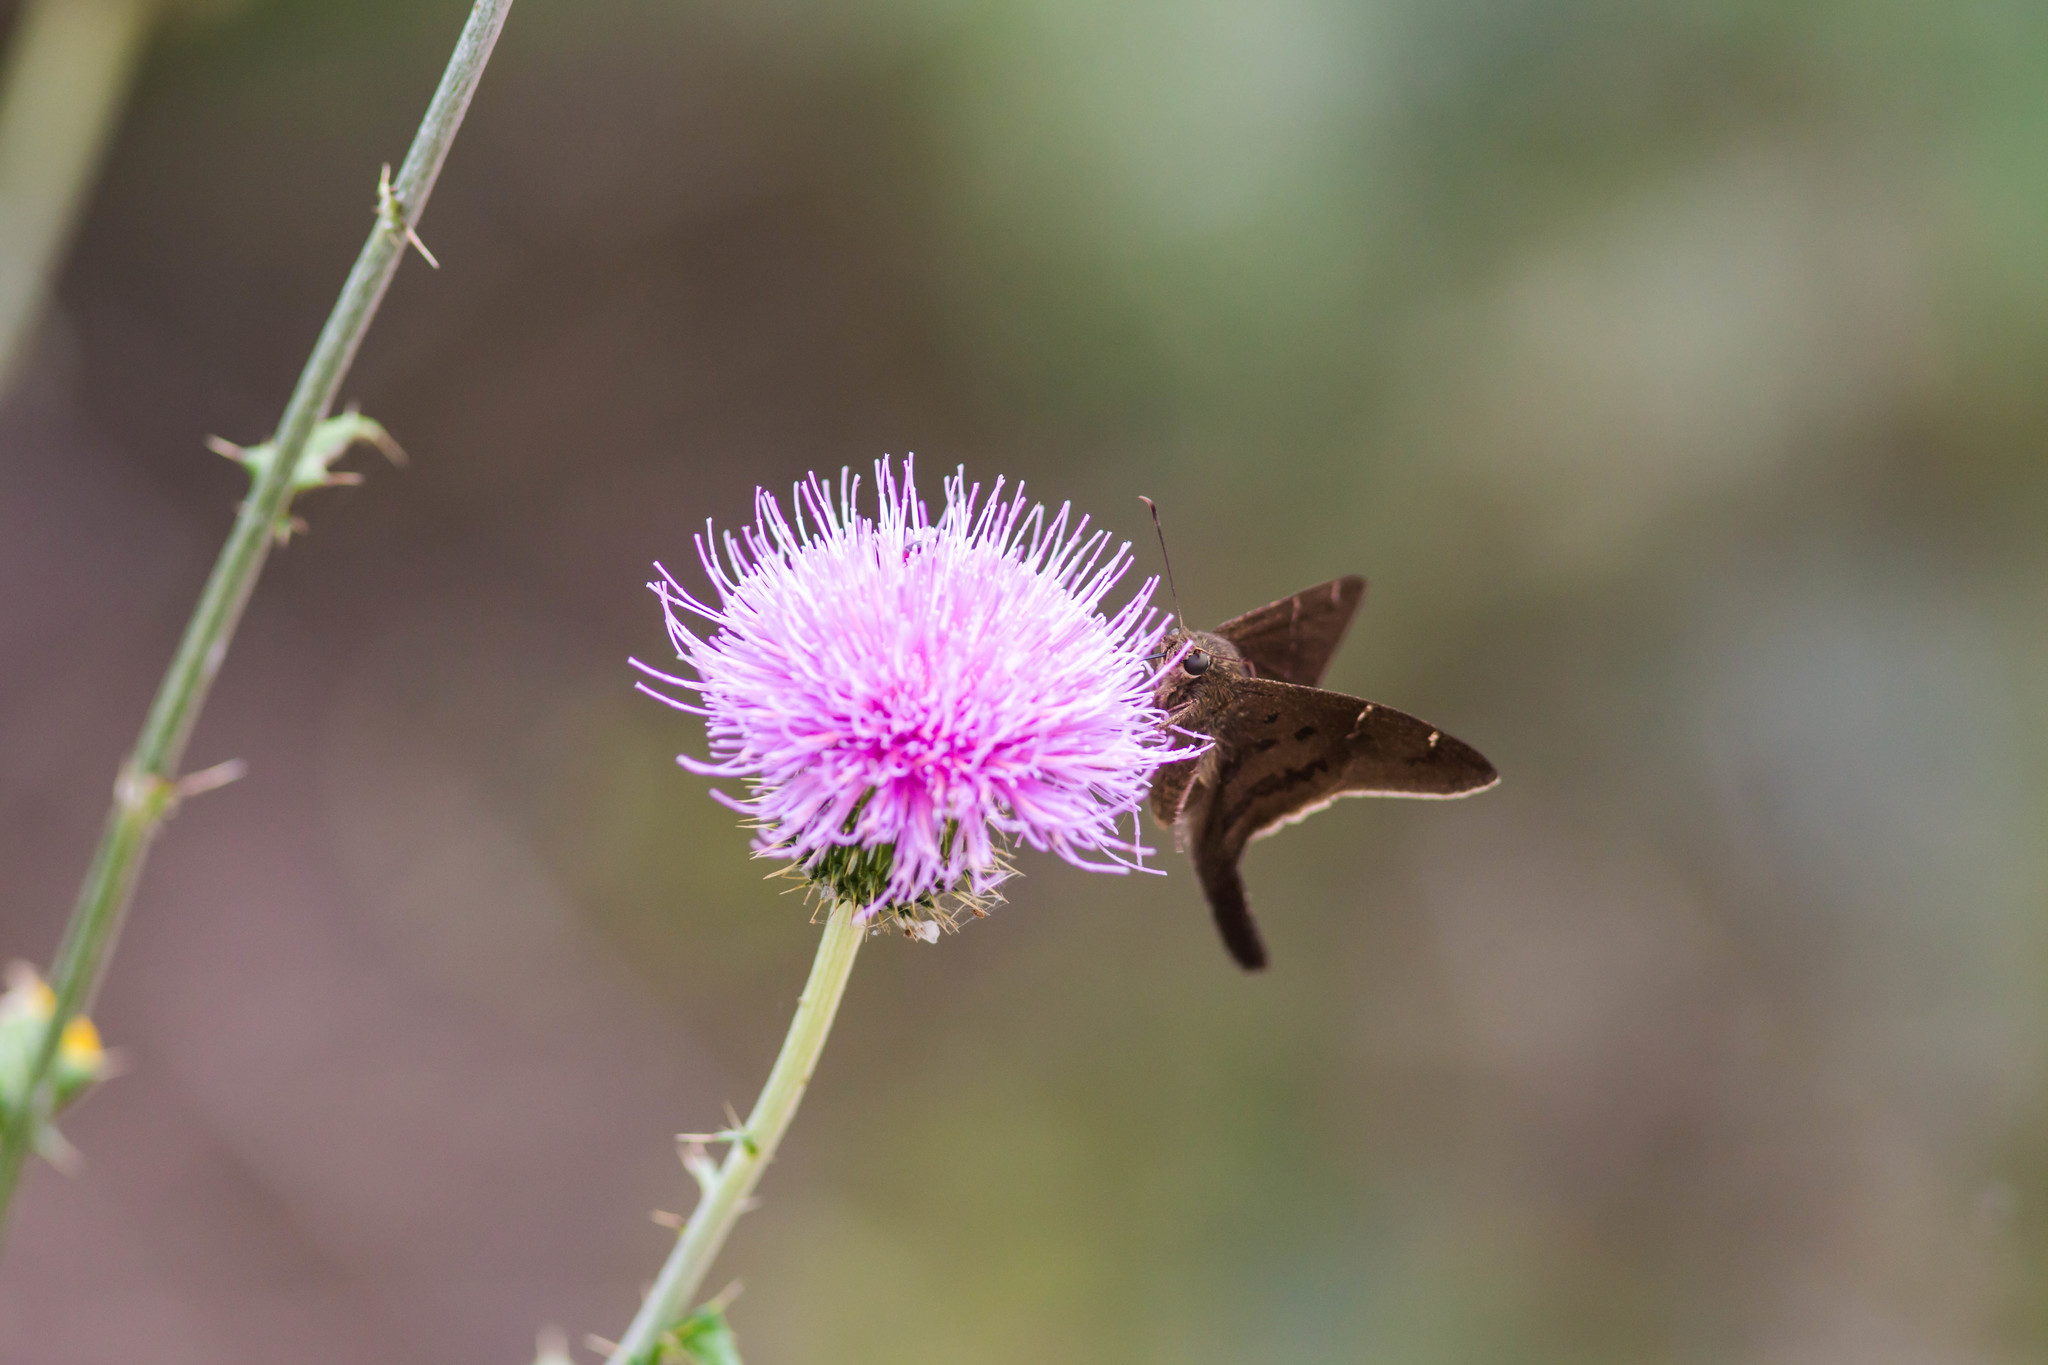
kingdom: Animalia
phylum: Arthropoda
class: Insecta
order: Lepidoptera
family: Hesperiidae
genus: Urbanus
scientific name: Urbanus procne
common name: Brown longtail
